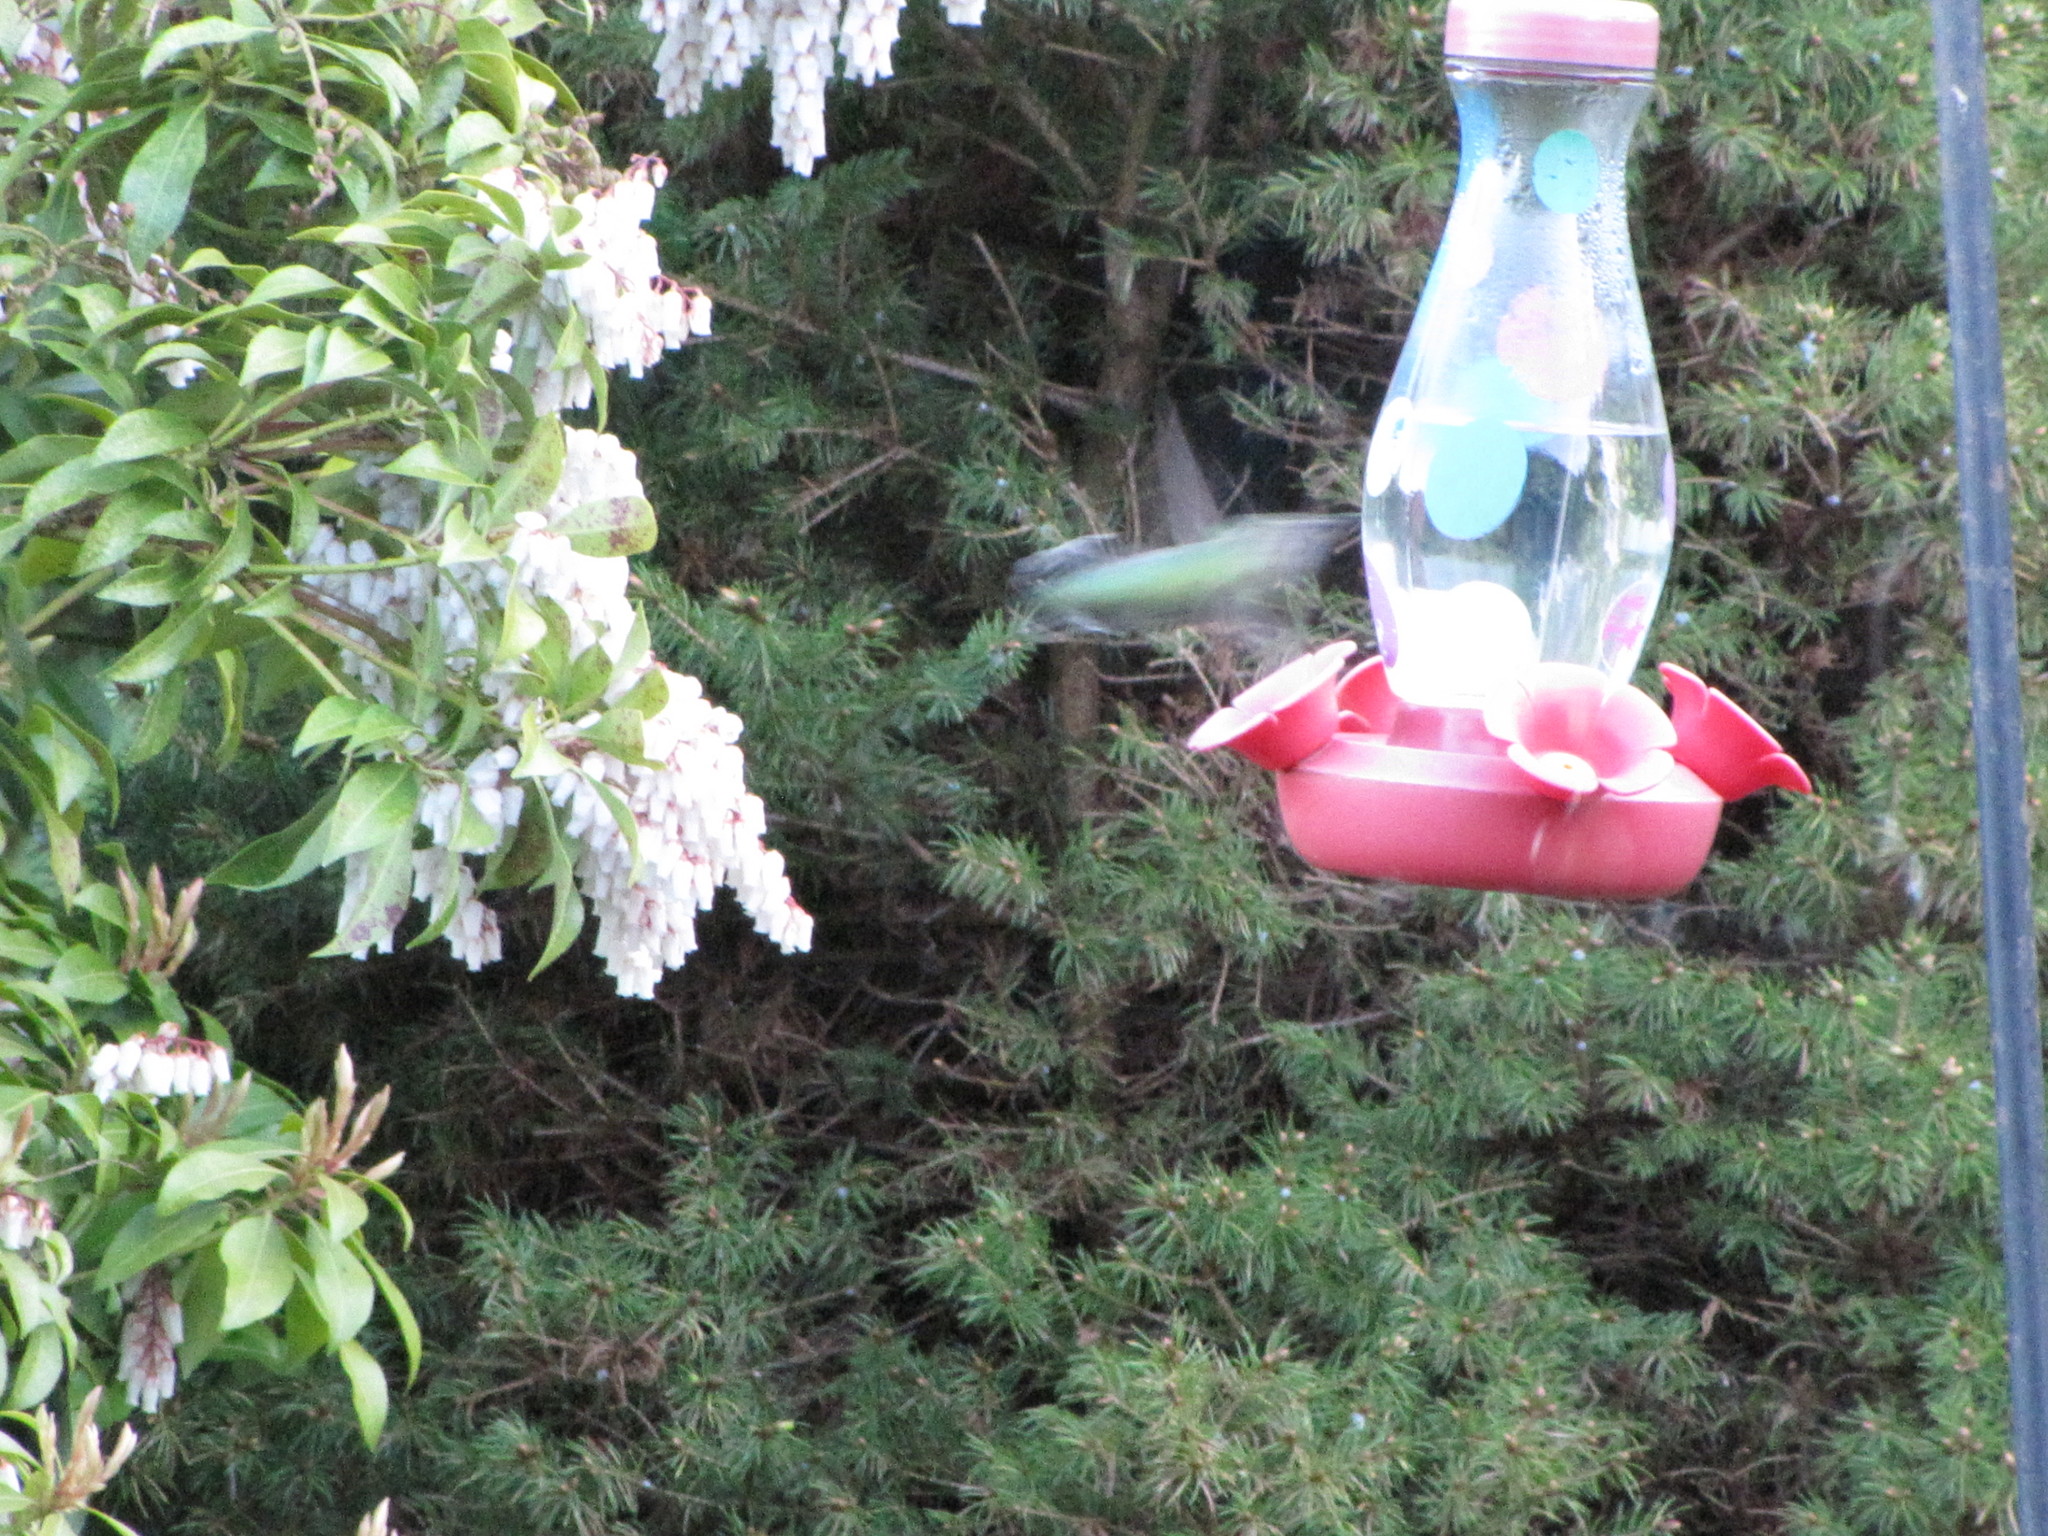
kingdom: Animalia
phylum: Chordata
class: Aves
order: Apodiformes
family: Trochilidae
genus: Calypte
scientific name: Calypte anna
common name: Anna's hummingbird
